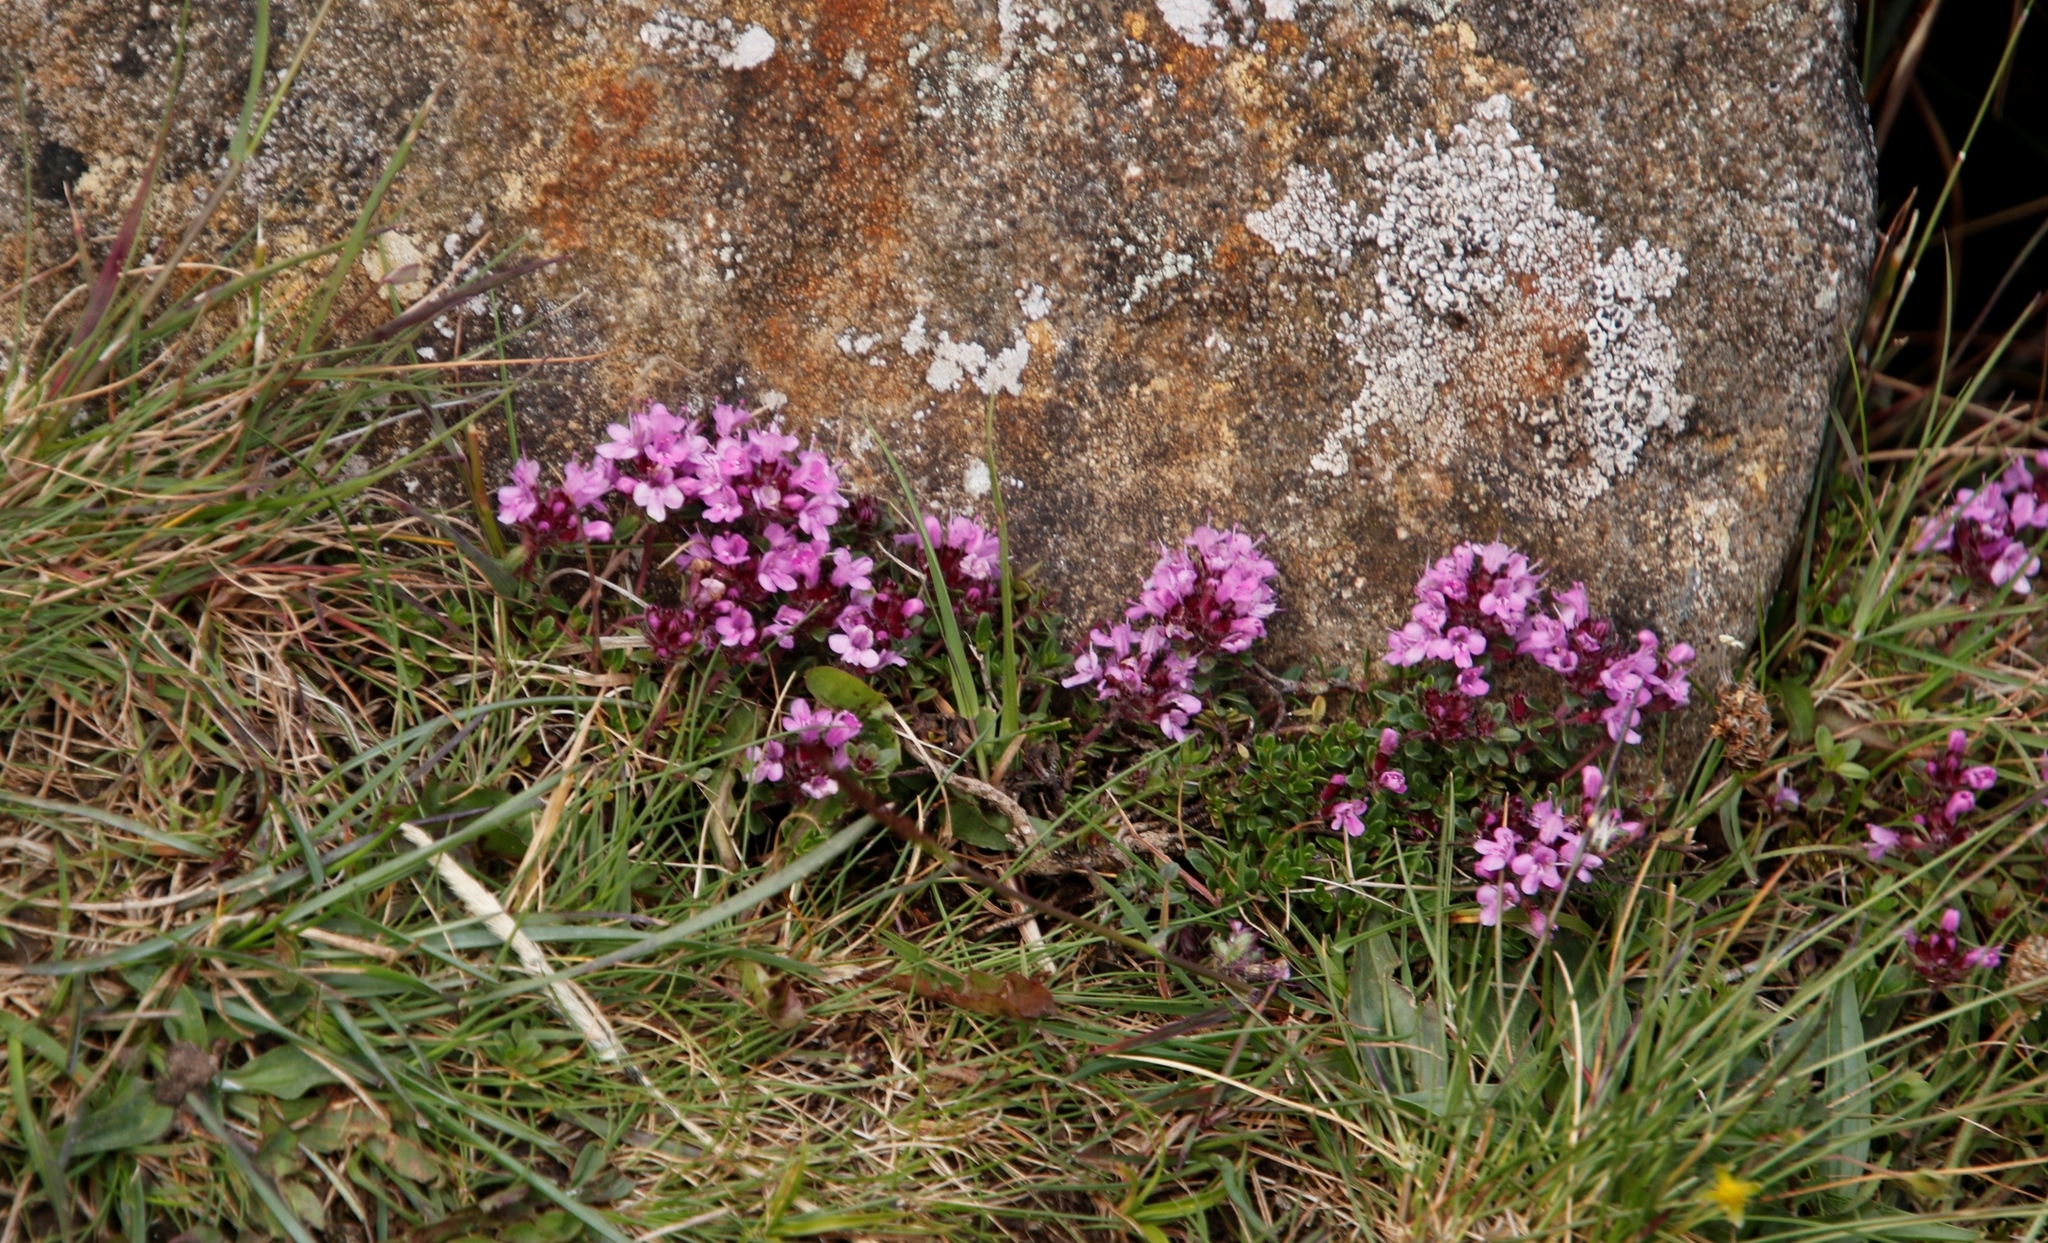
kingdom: Plantae
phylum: Tracheophyta
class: Magnoliopsida
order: Lamiales
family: Lamiaceae
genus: Thymus
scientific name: Thymus praecox
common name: Wild thyme
